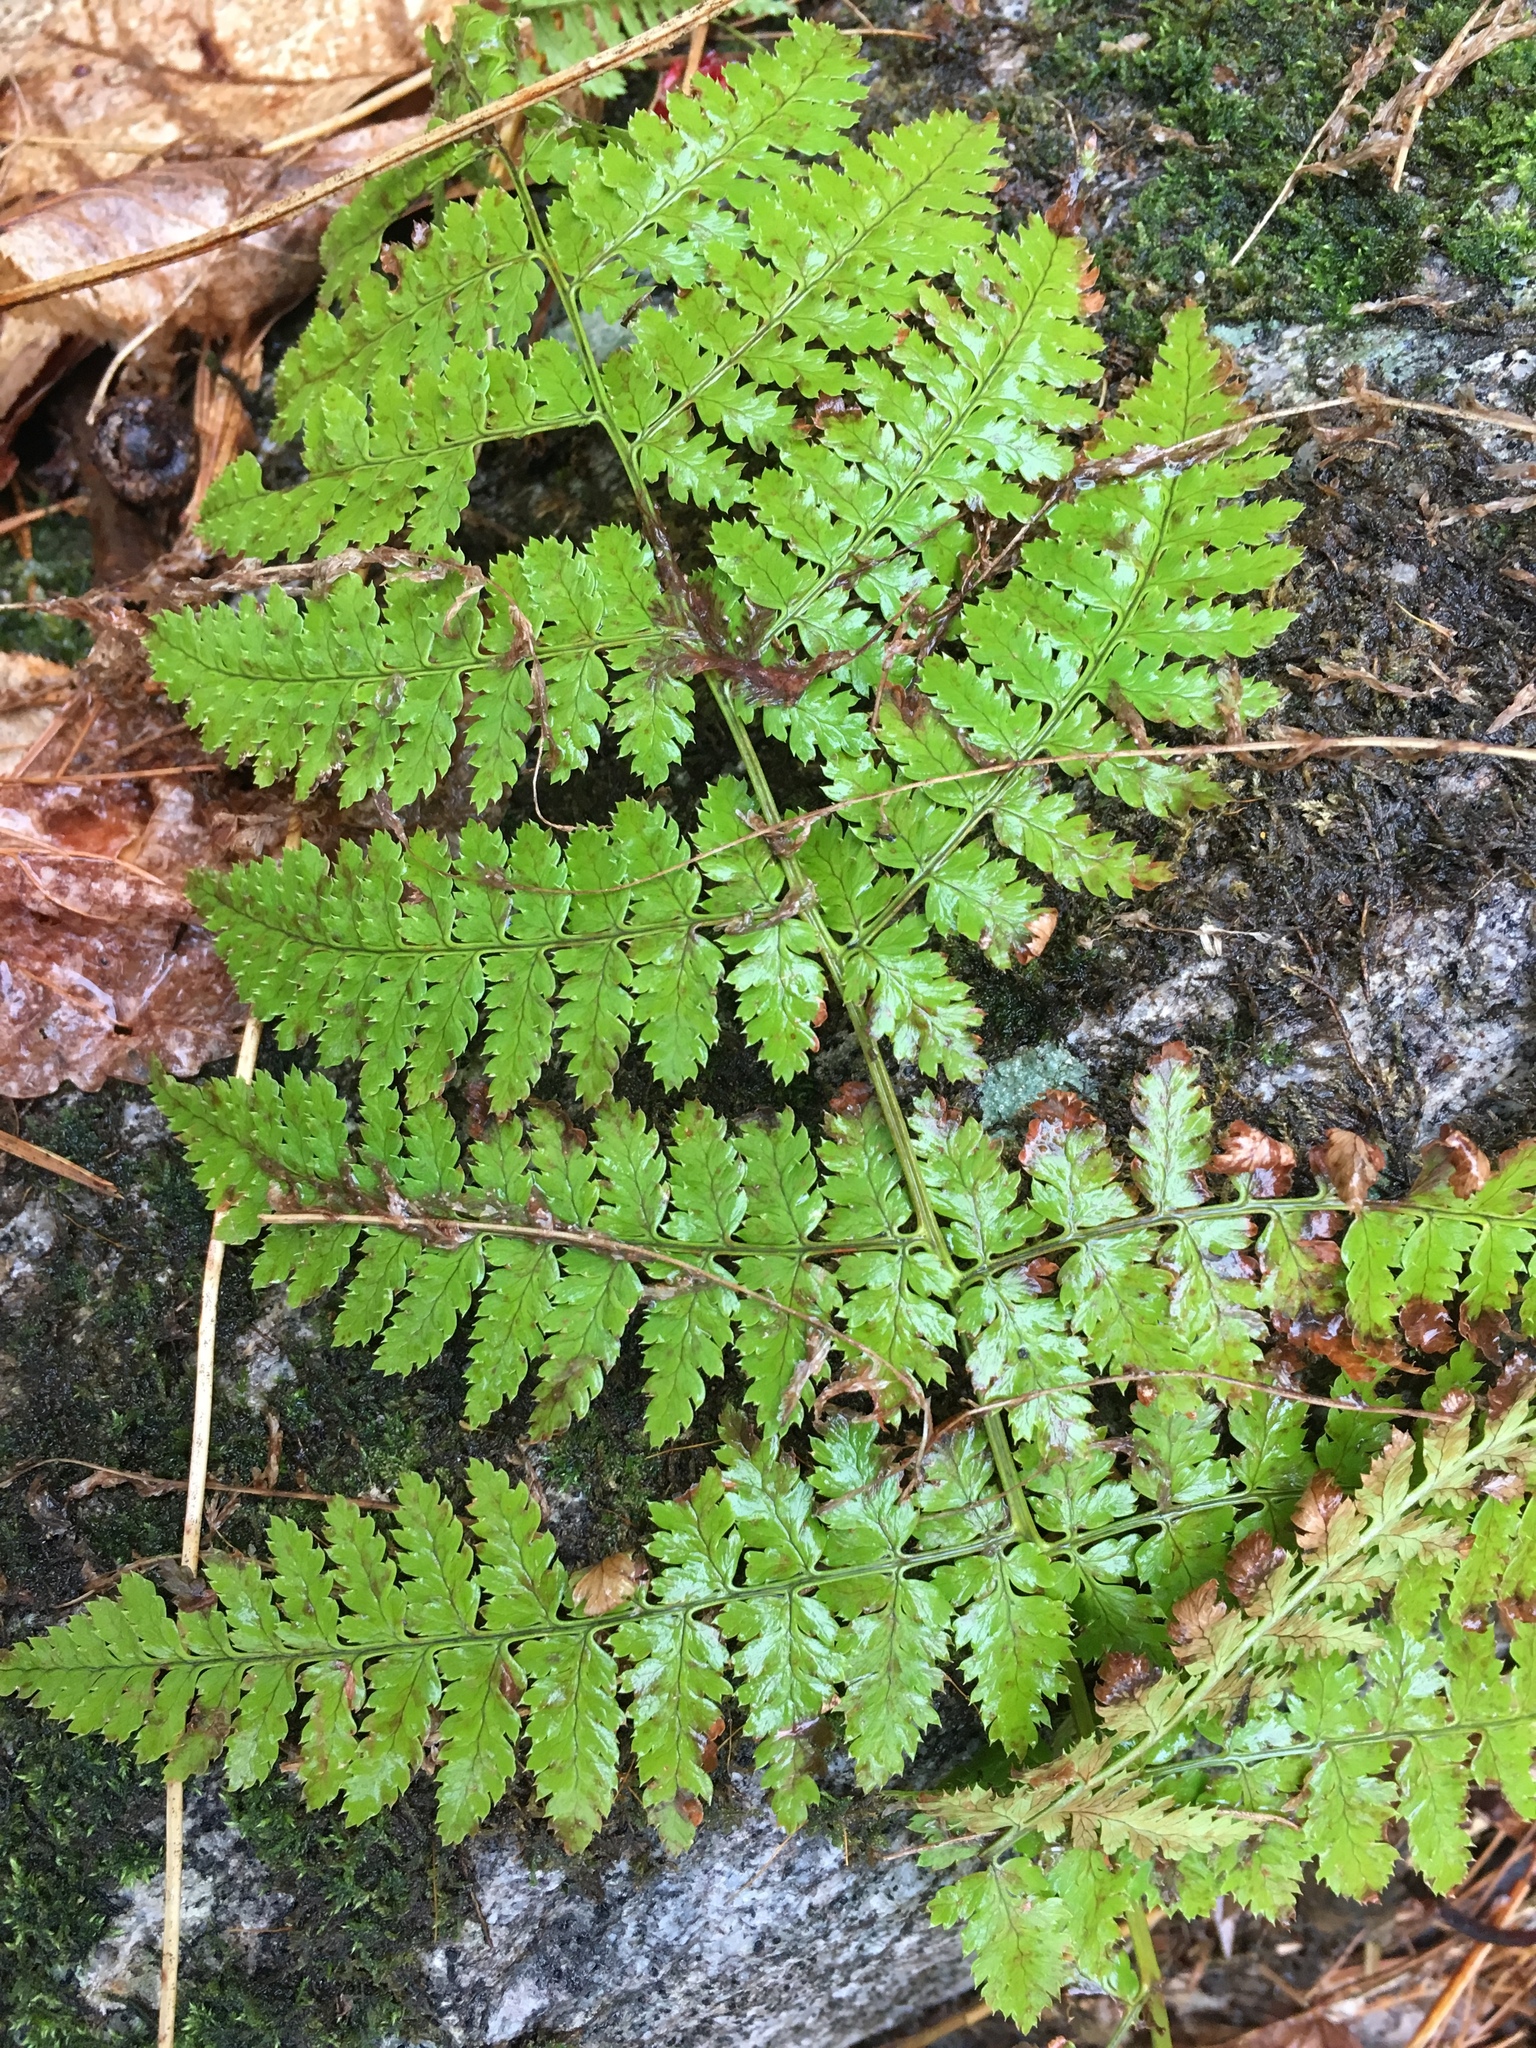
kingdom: Plantae
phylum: Tracheophyta
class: Polypodiopsida
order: Polypodiales
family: Dryopteridaceae
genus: Dryopteris
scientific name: Dryopteris intermedia
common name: Evergreen wood fern
